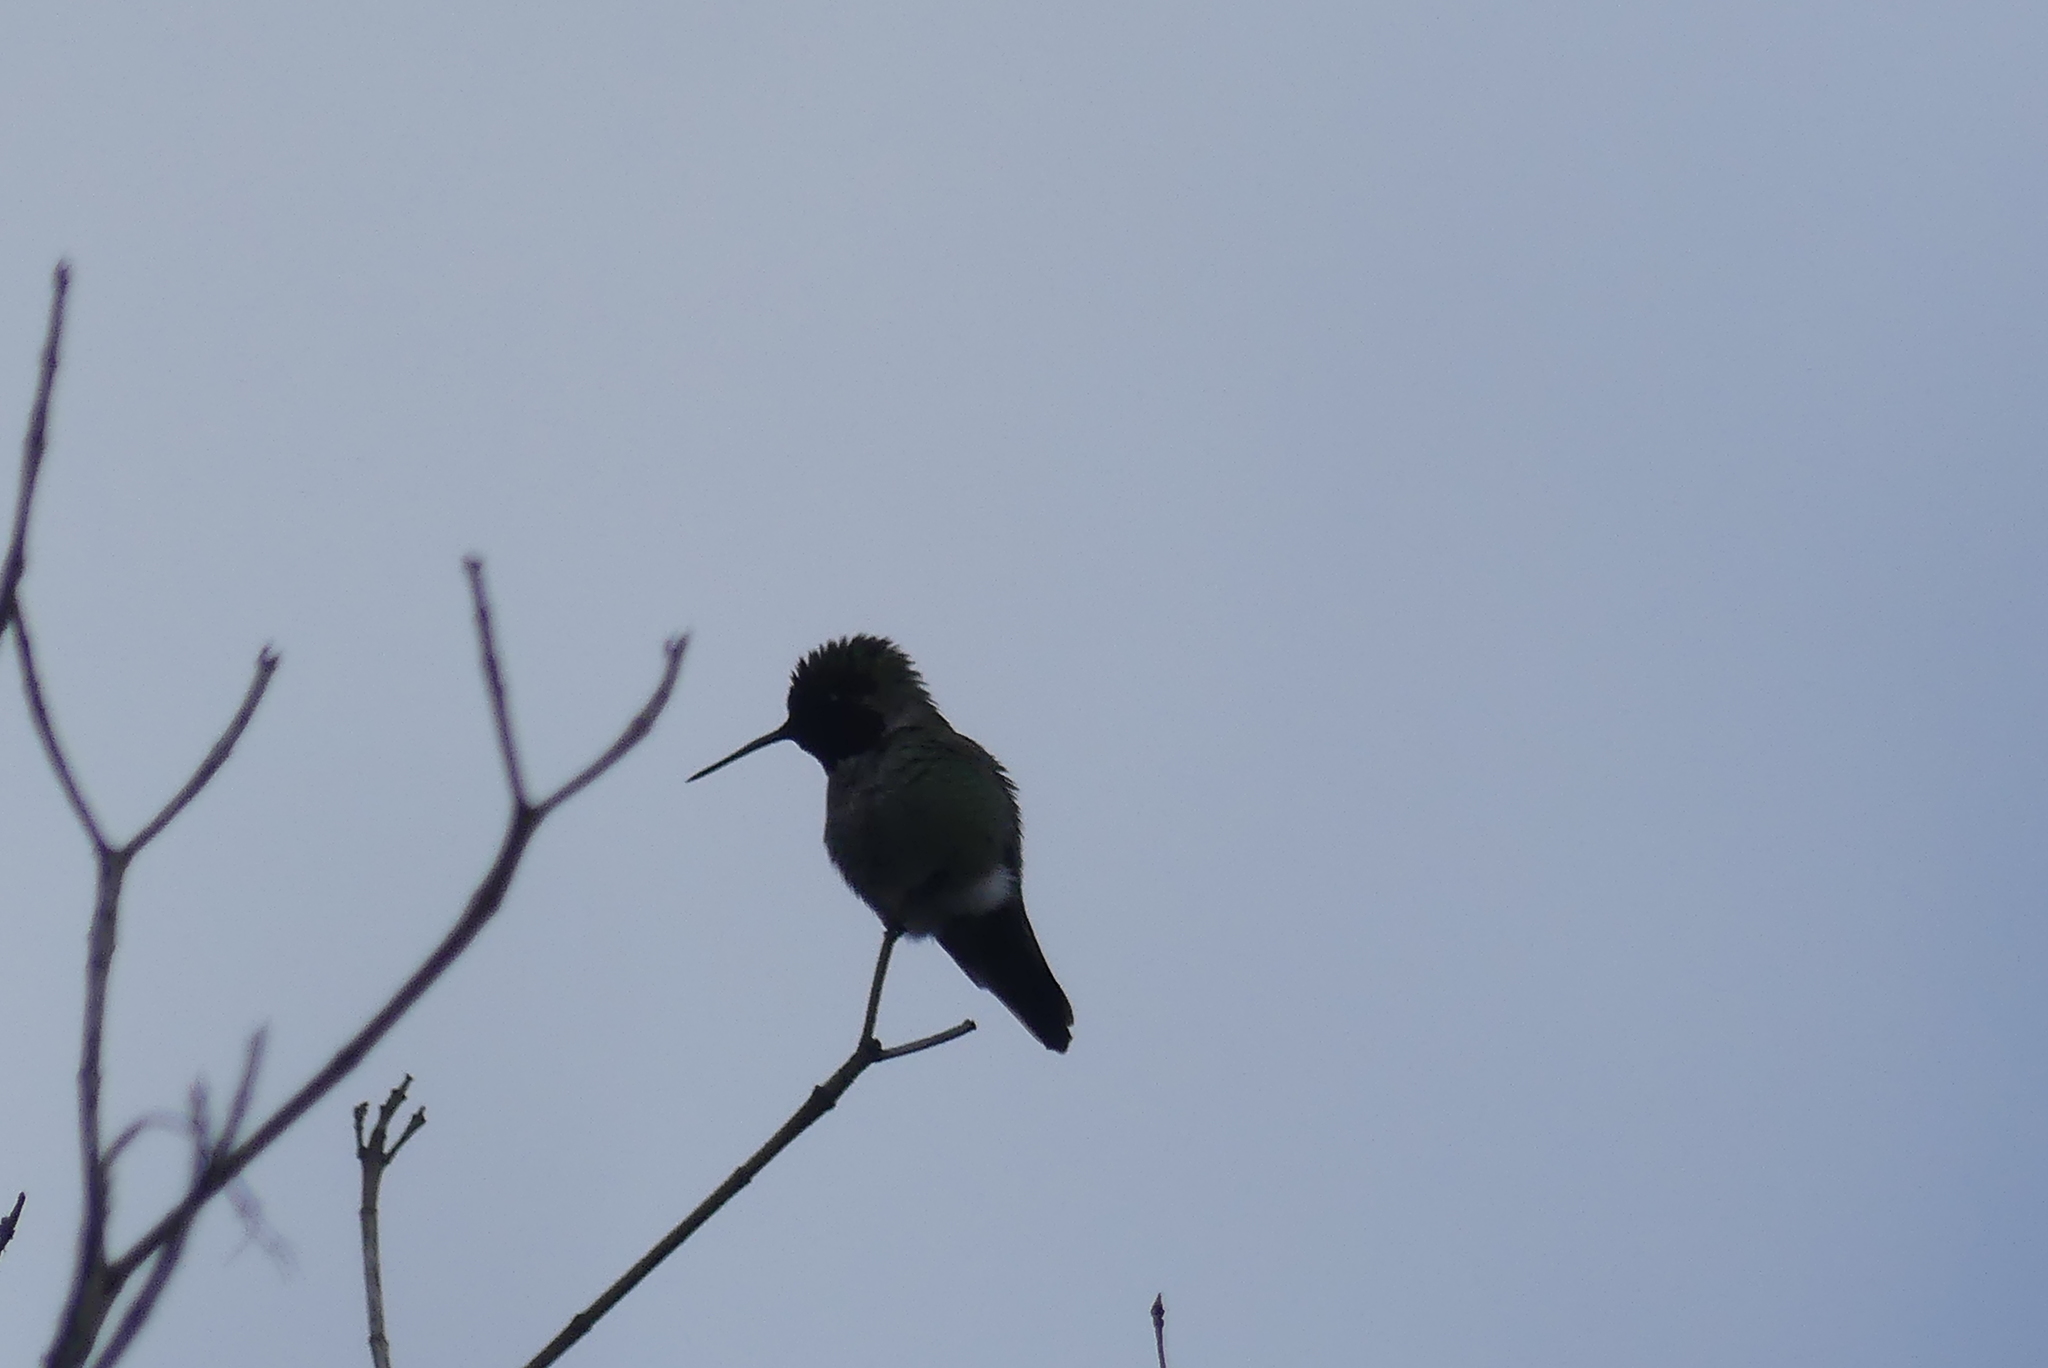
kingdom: Animalia
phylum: Chordata
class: Aves
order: Apodiformes
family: Trochilidae
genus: Calypte
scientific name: Calypte anna
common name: Anna's hummingbird
